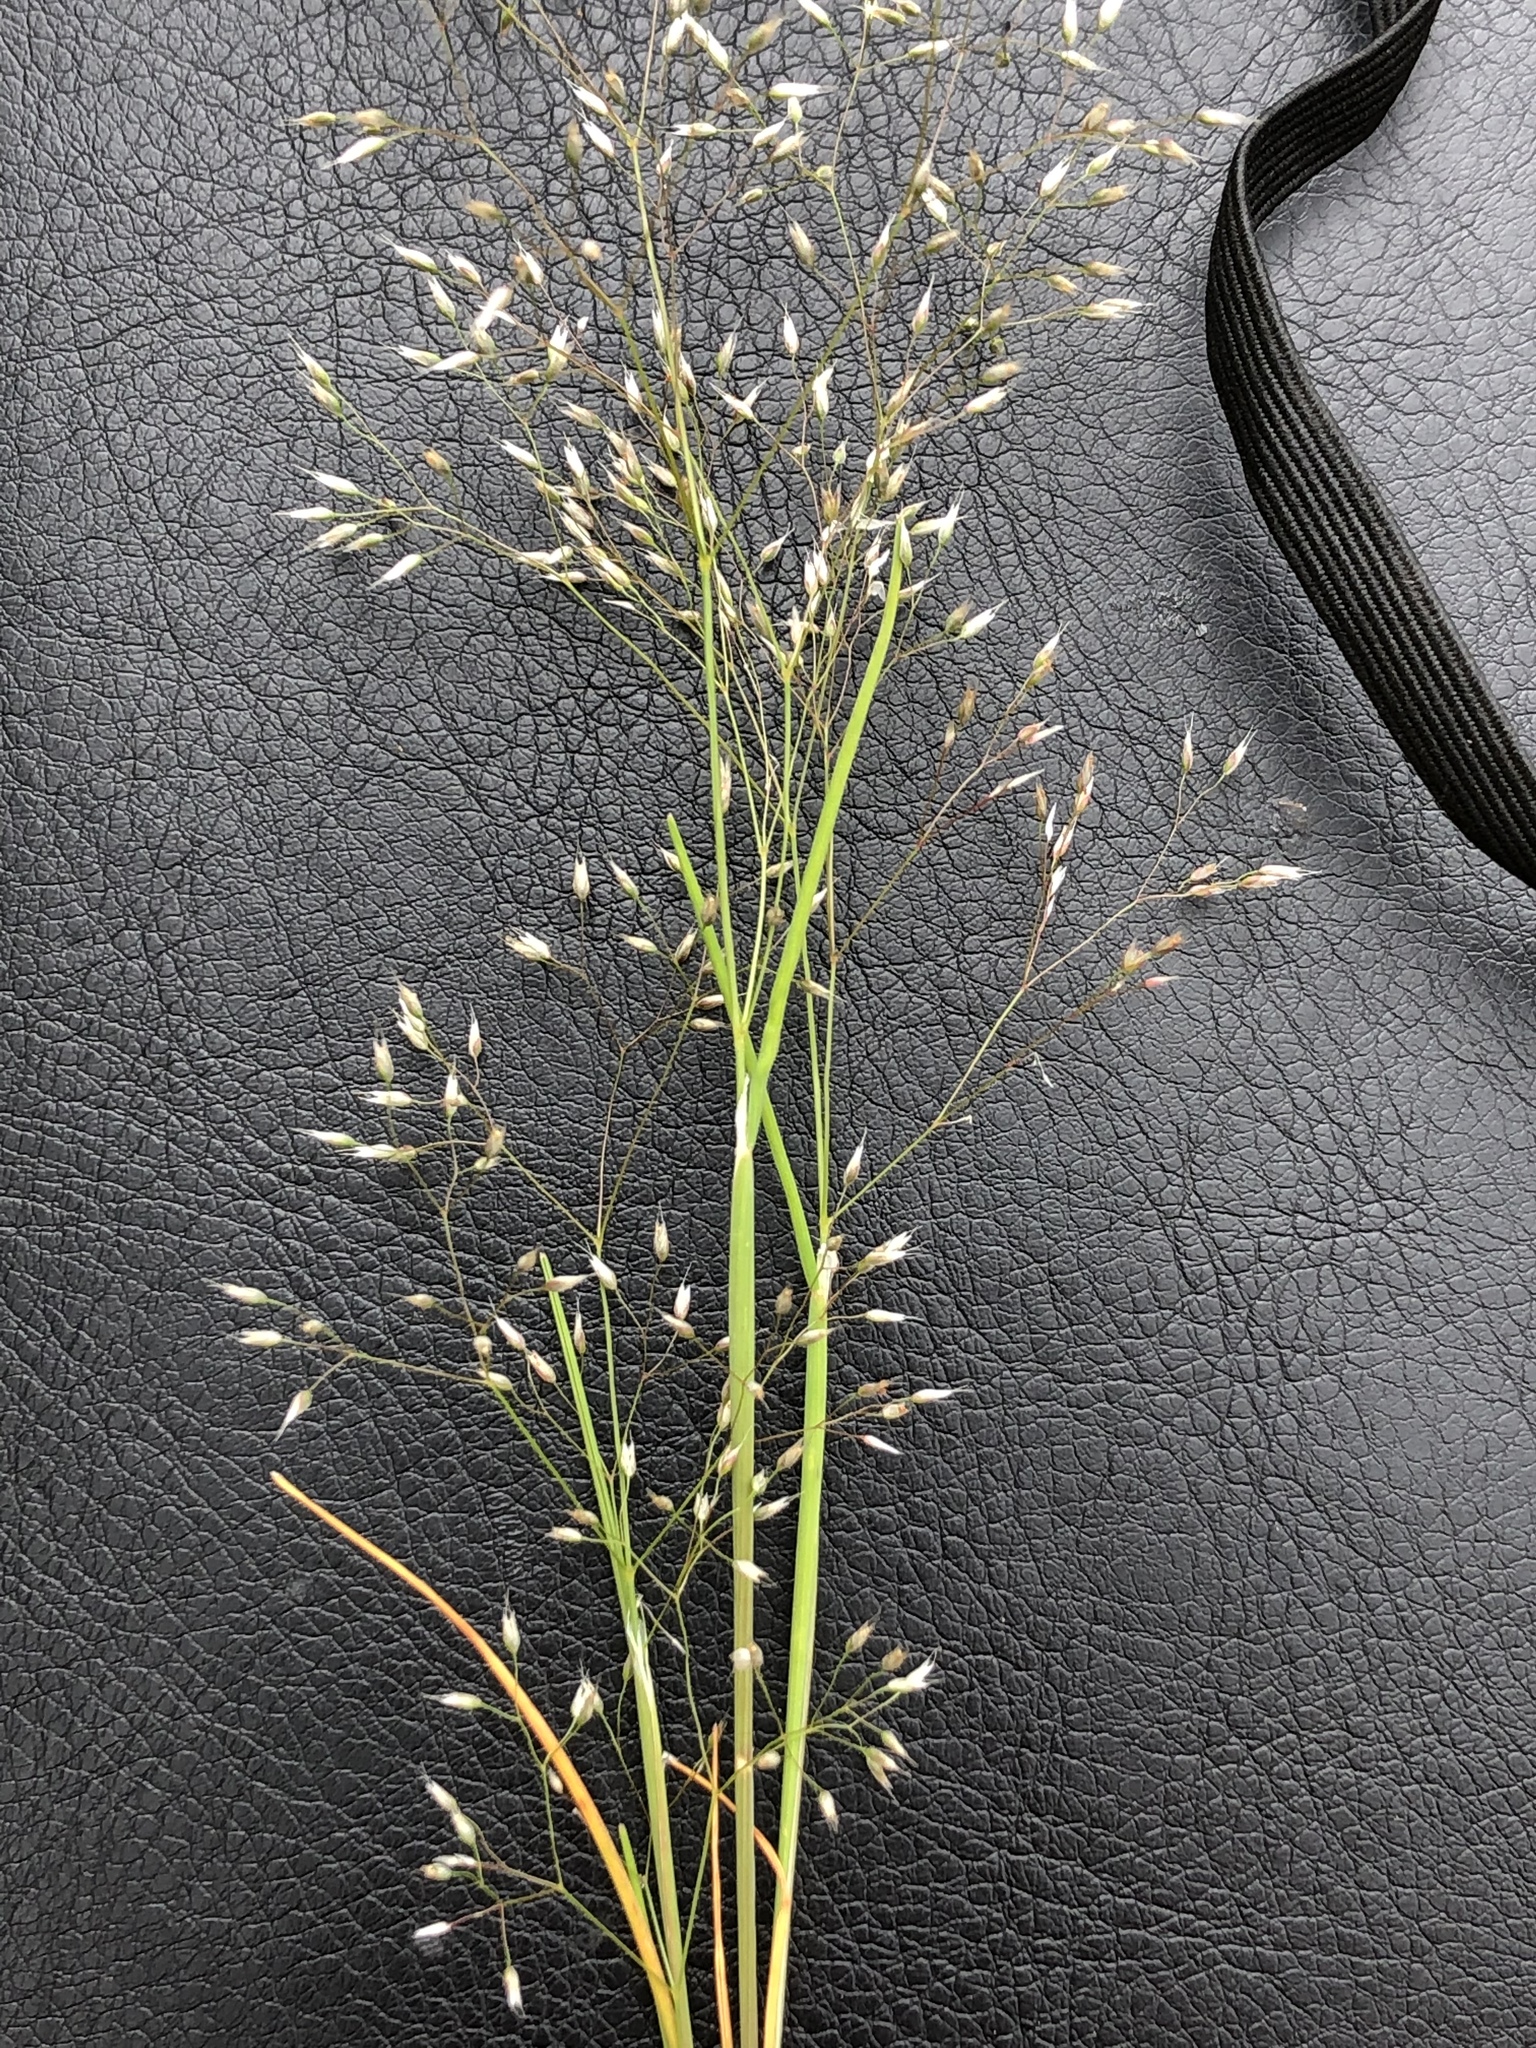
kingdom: Plantae
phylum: Tracheophyta
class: Liliopsida
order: Poales
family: Poaceae
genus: Aira
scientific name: Aira caryophyllea
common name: Silver hairgrass
